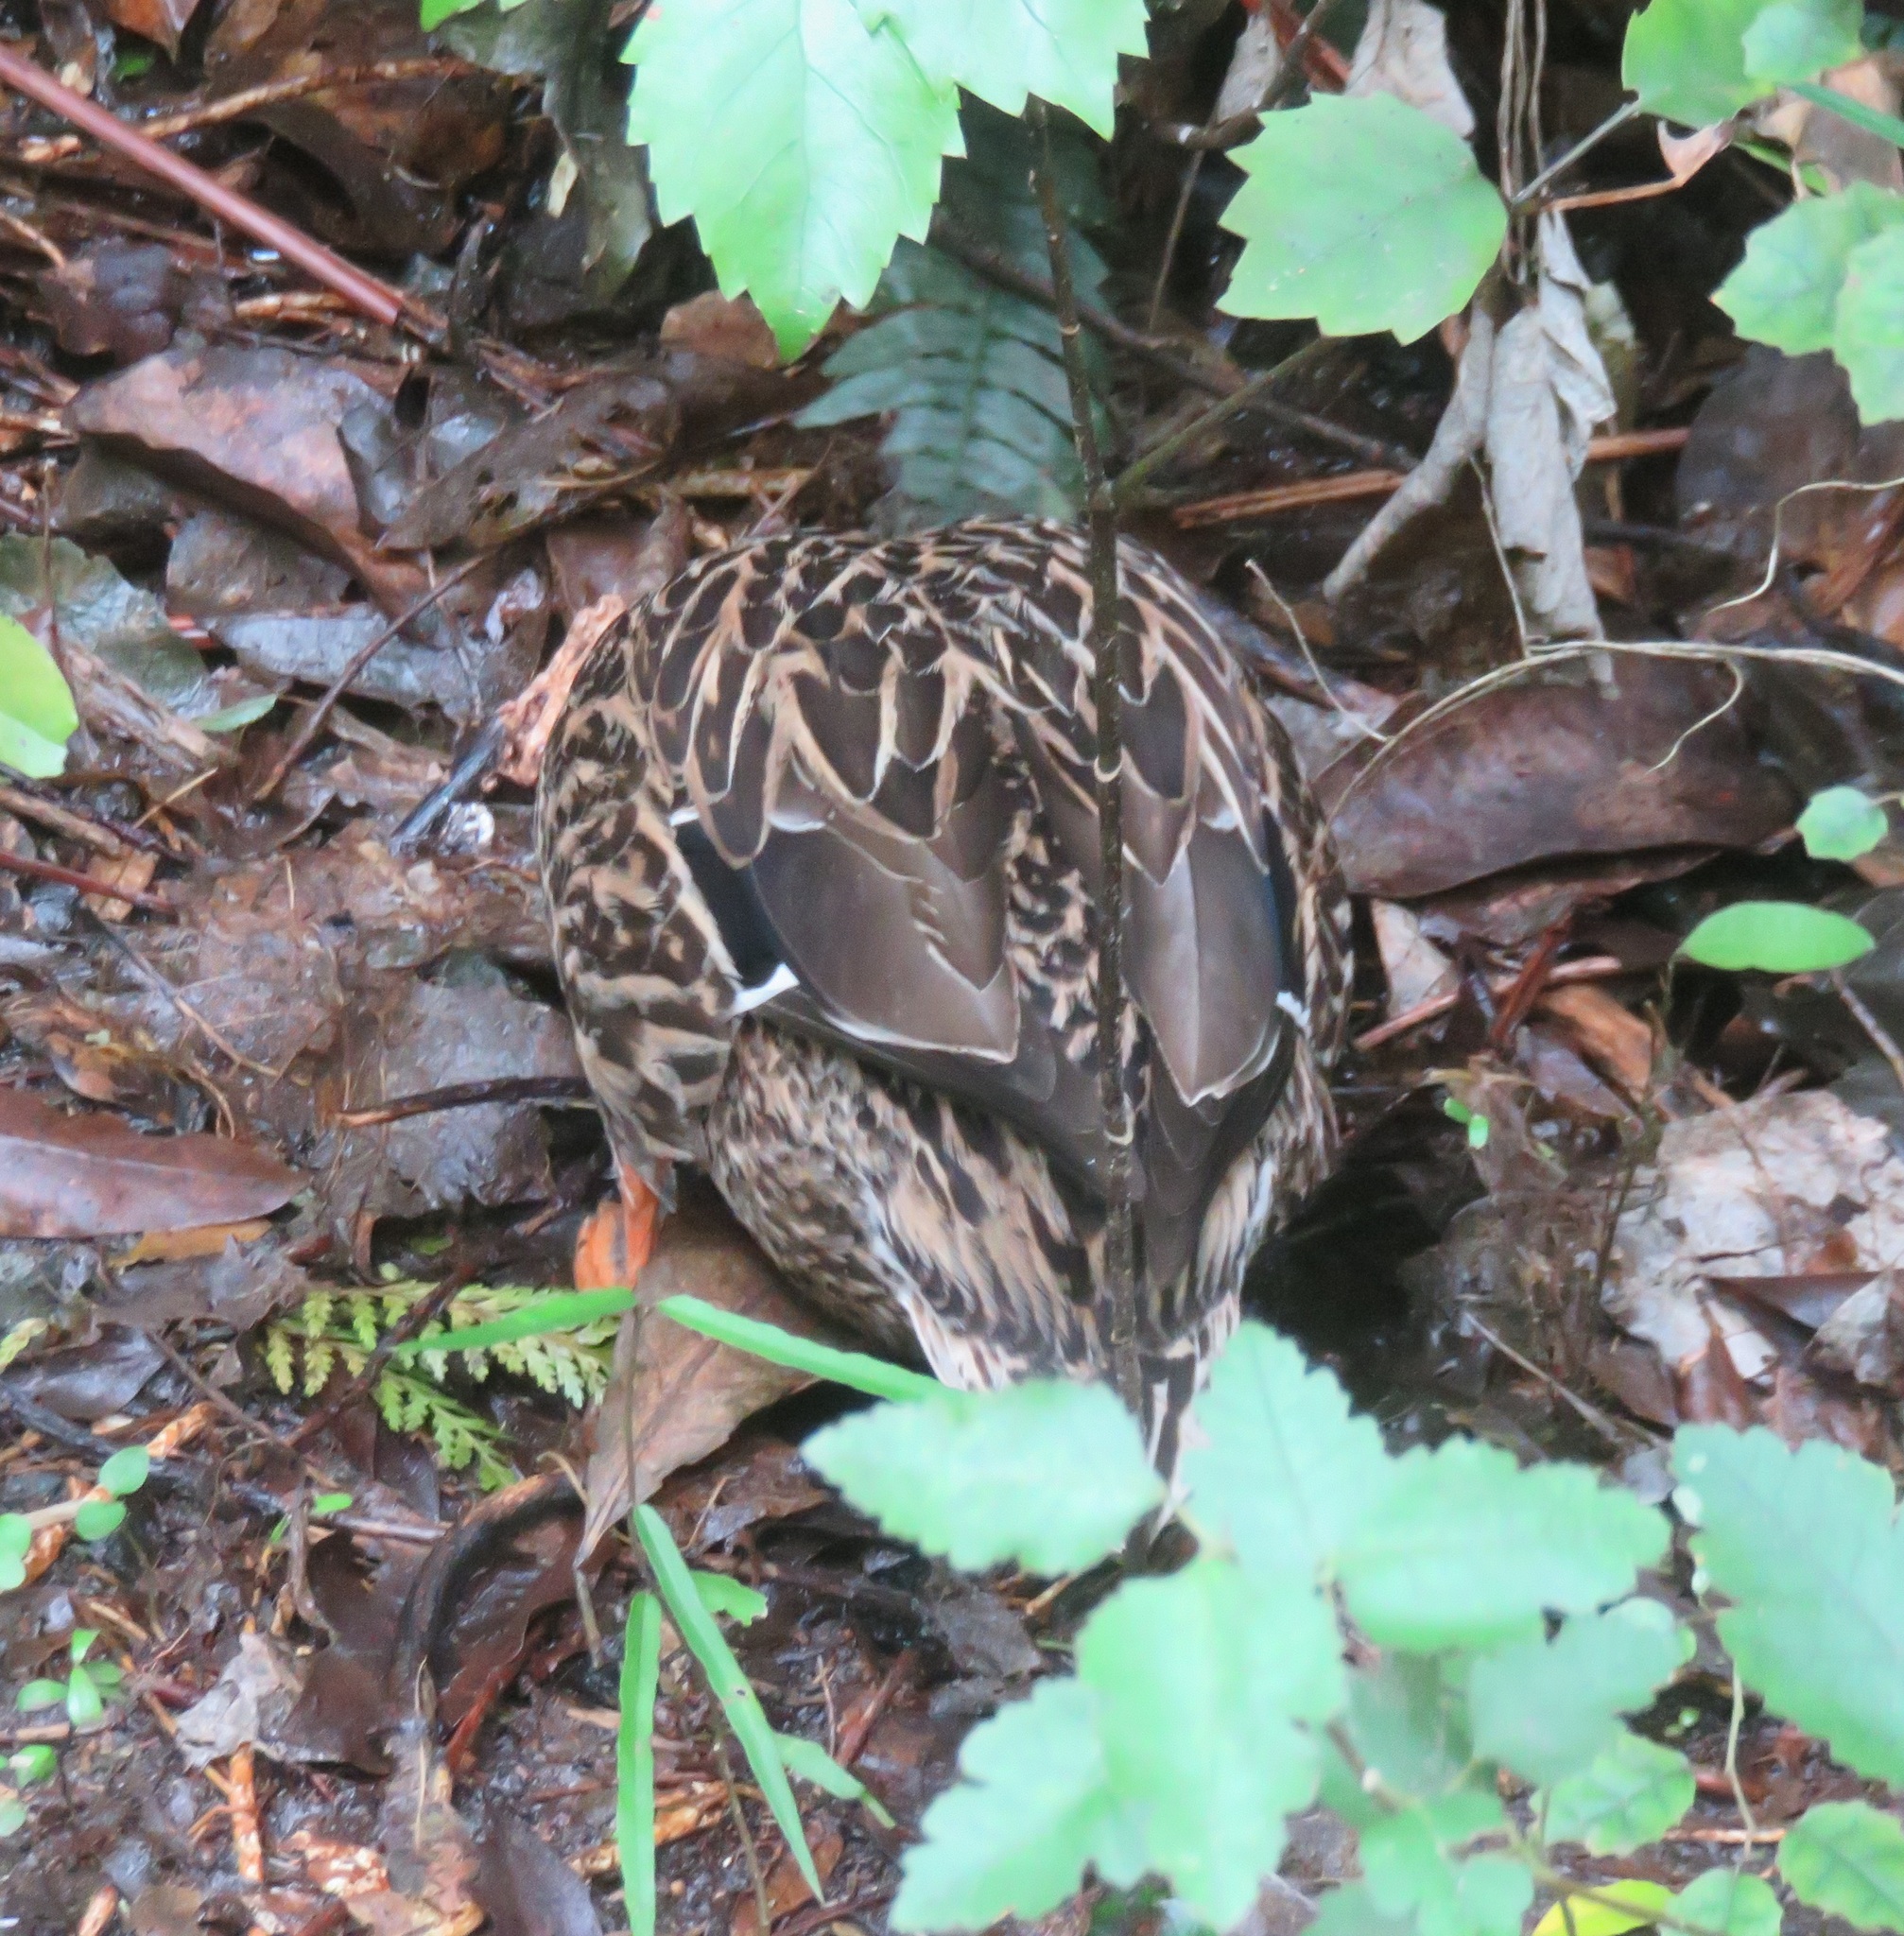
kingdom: Animalia
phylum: Chordata
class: Aves
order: Anseriformes
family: Anatidae
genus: Anas
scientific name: Anas platyrhynchos
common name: Mallard
